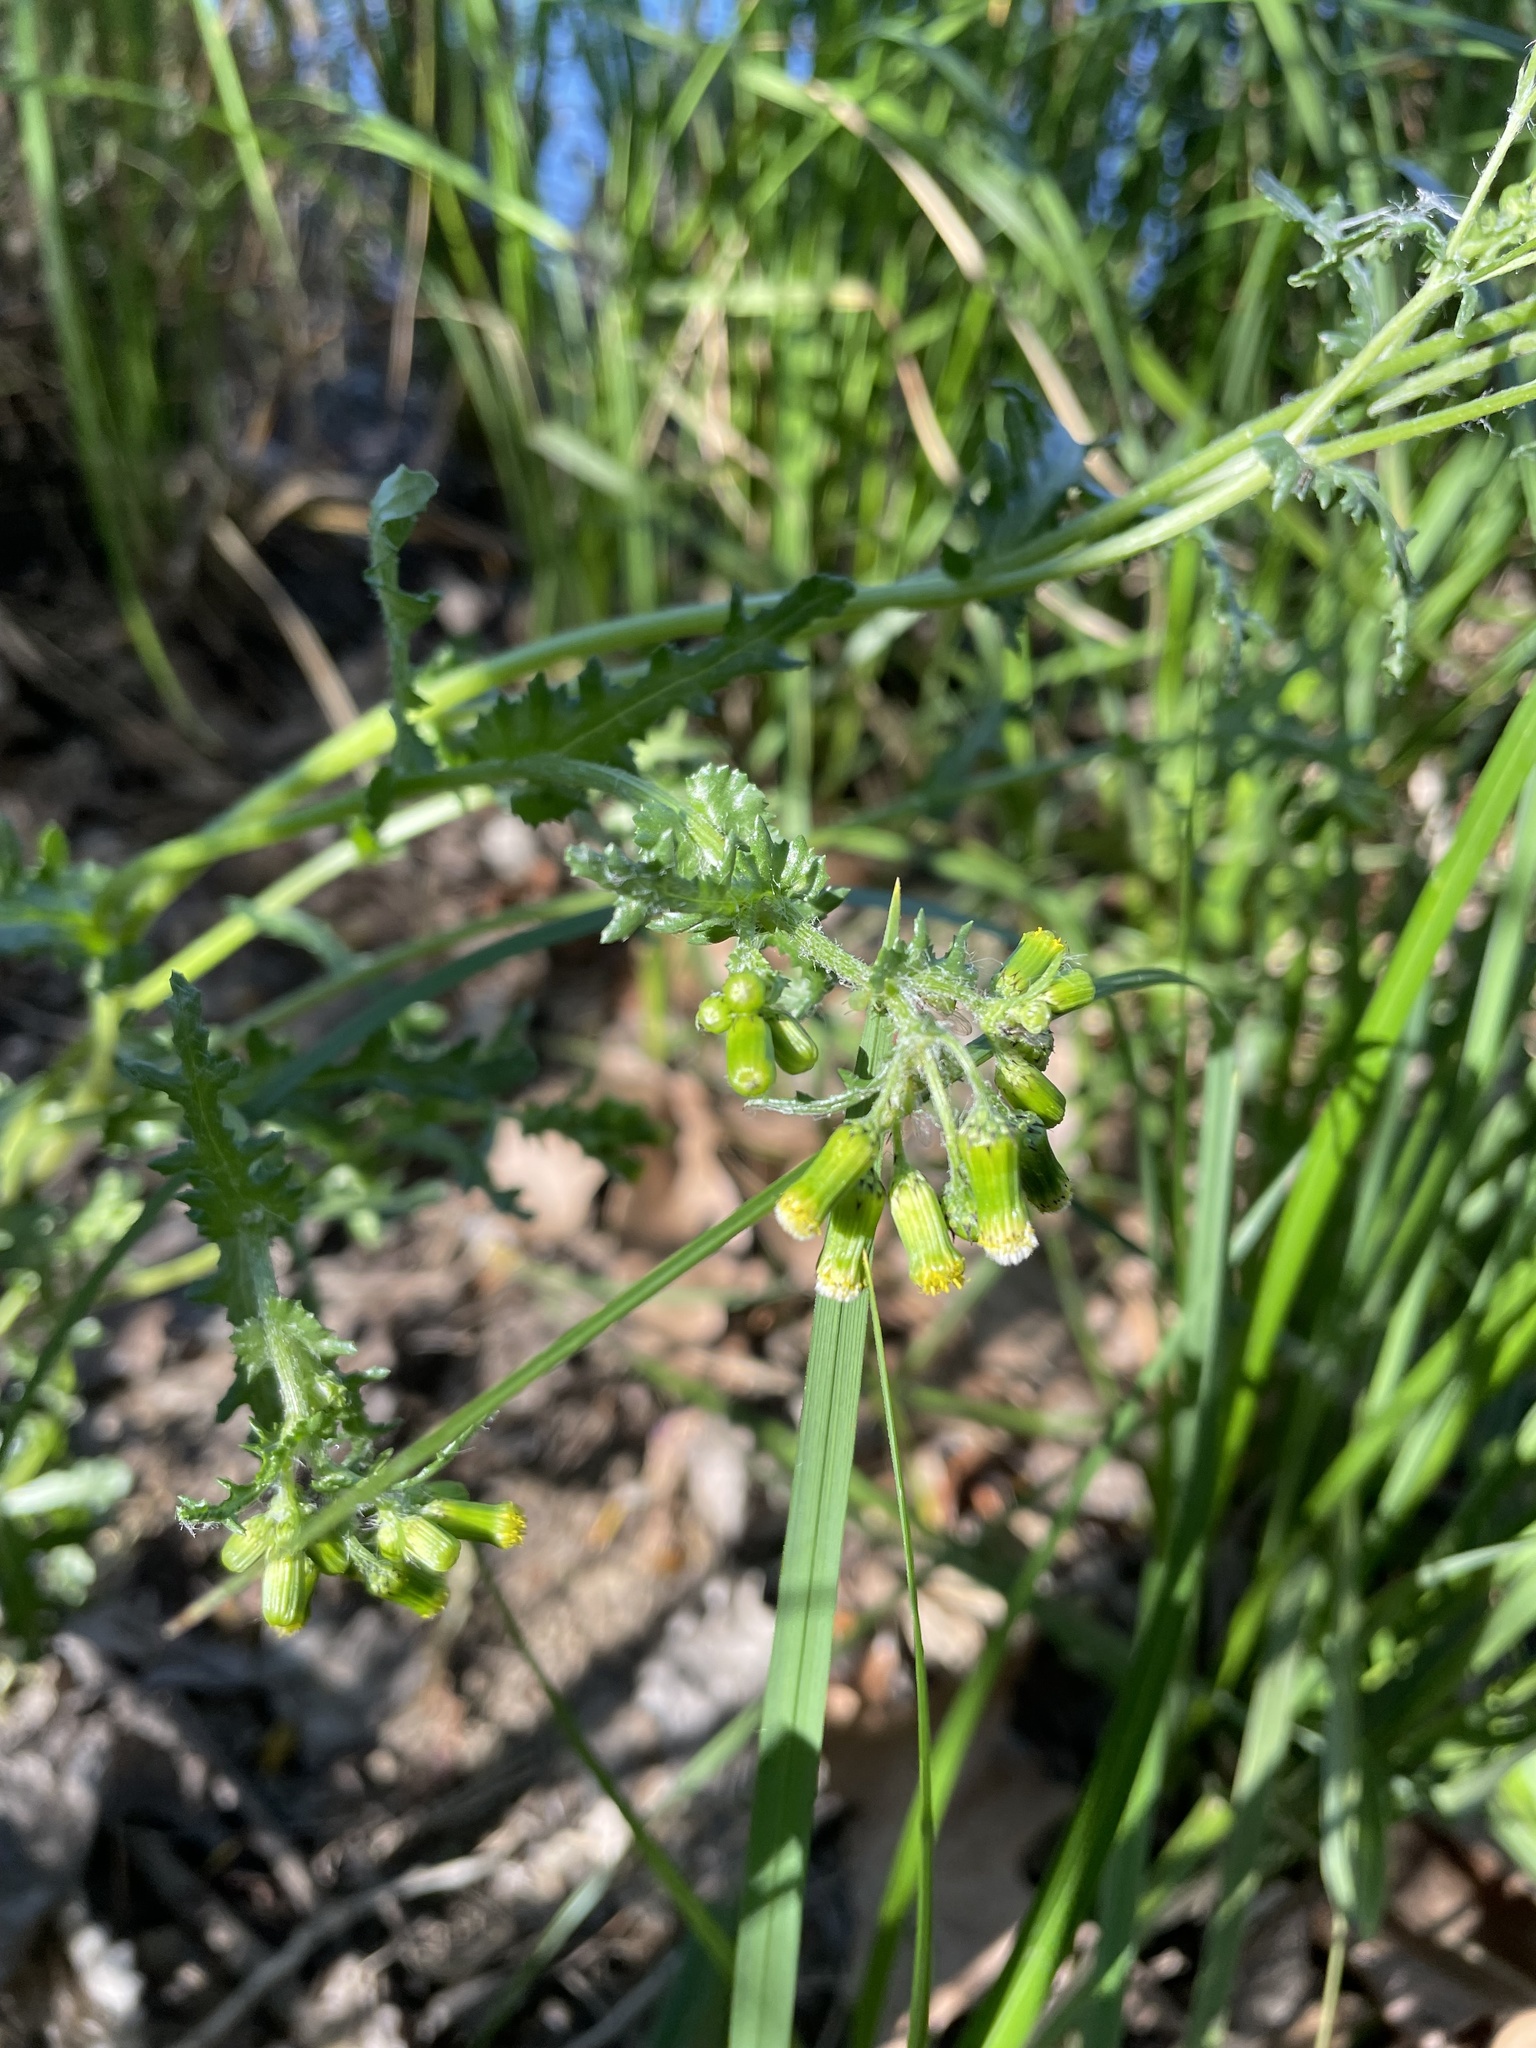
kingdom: Plantae
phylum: Tracheophyta
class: Magnoliopsida
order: Asterales
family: Asteraceae
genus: Senecio
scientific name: Senecio vulgaris
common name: Old-man-in-the-spring
